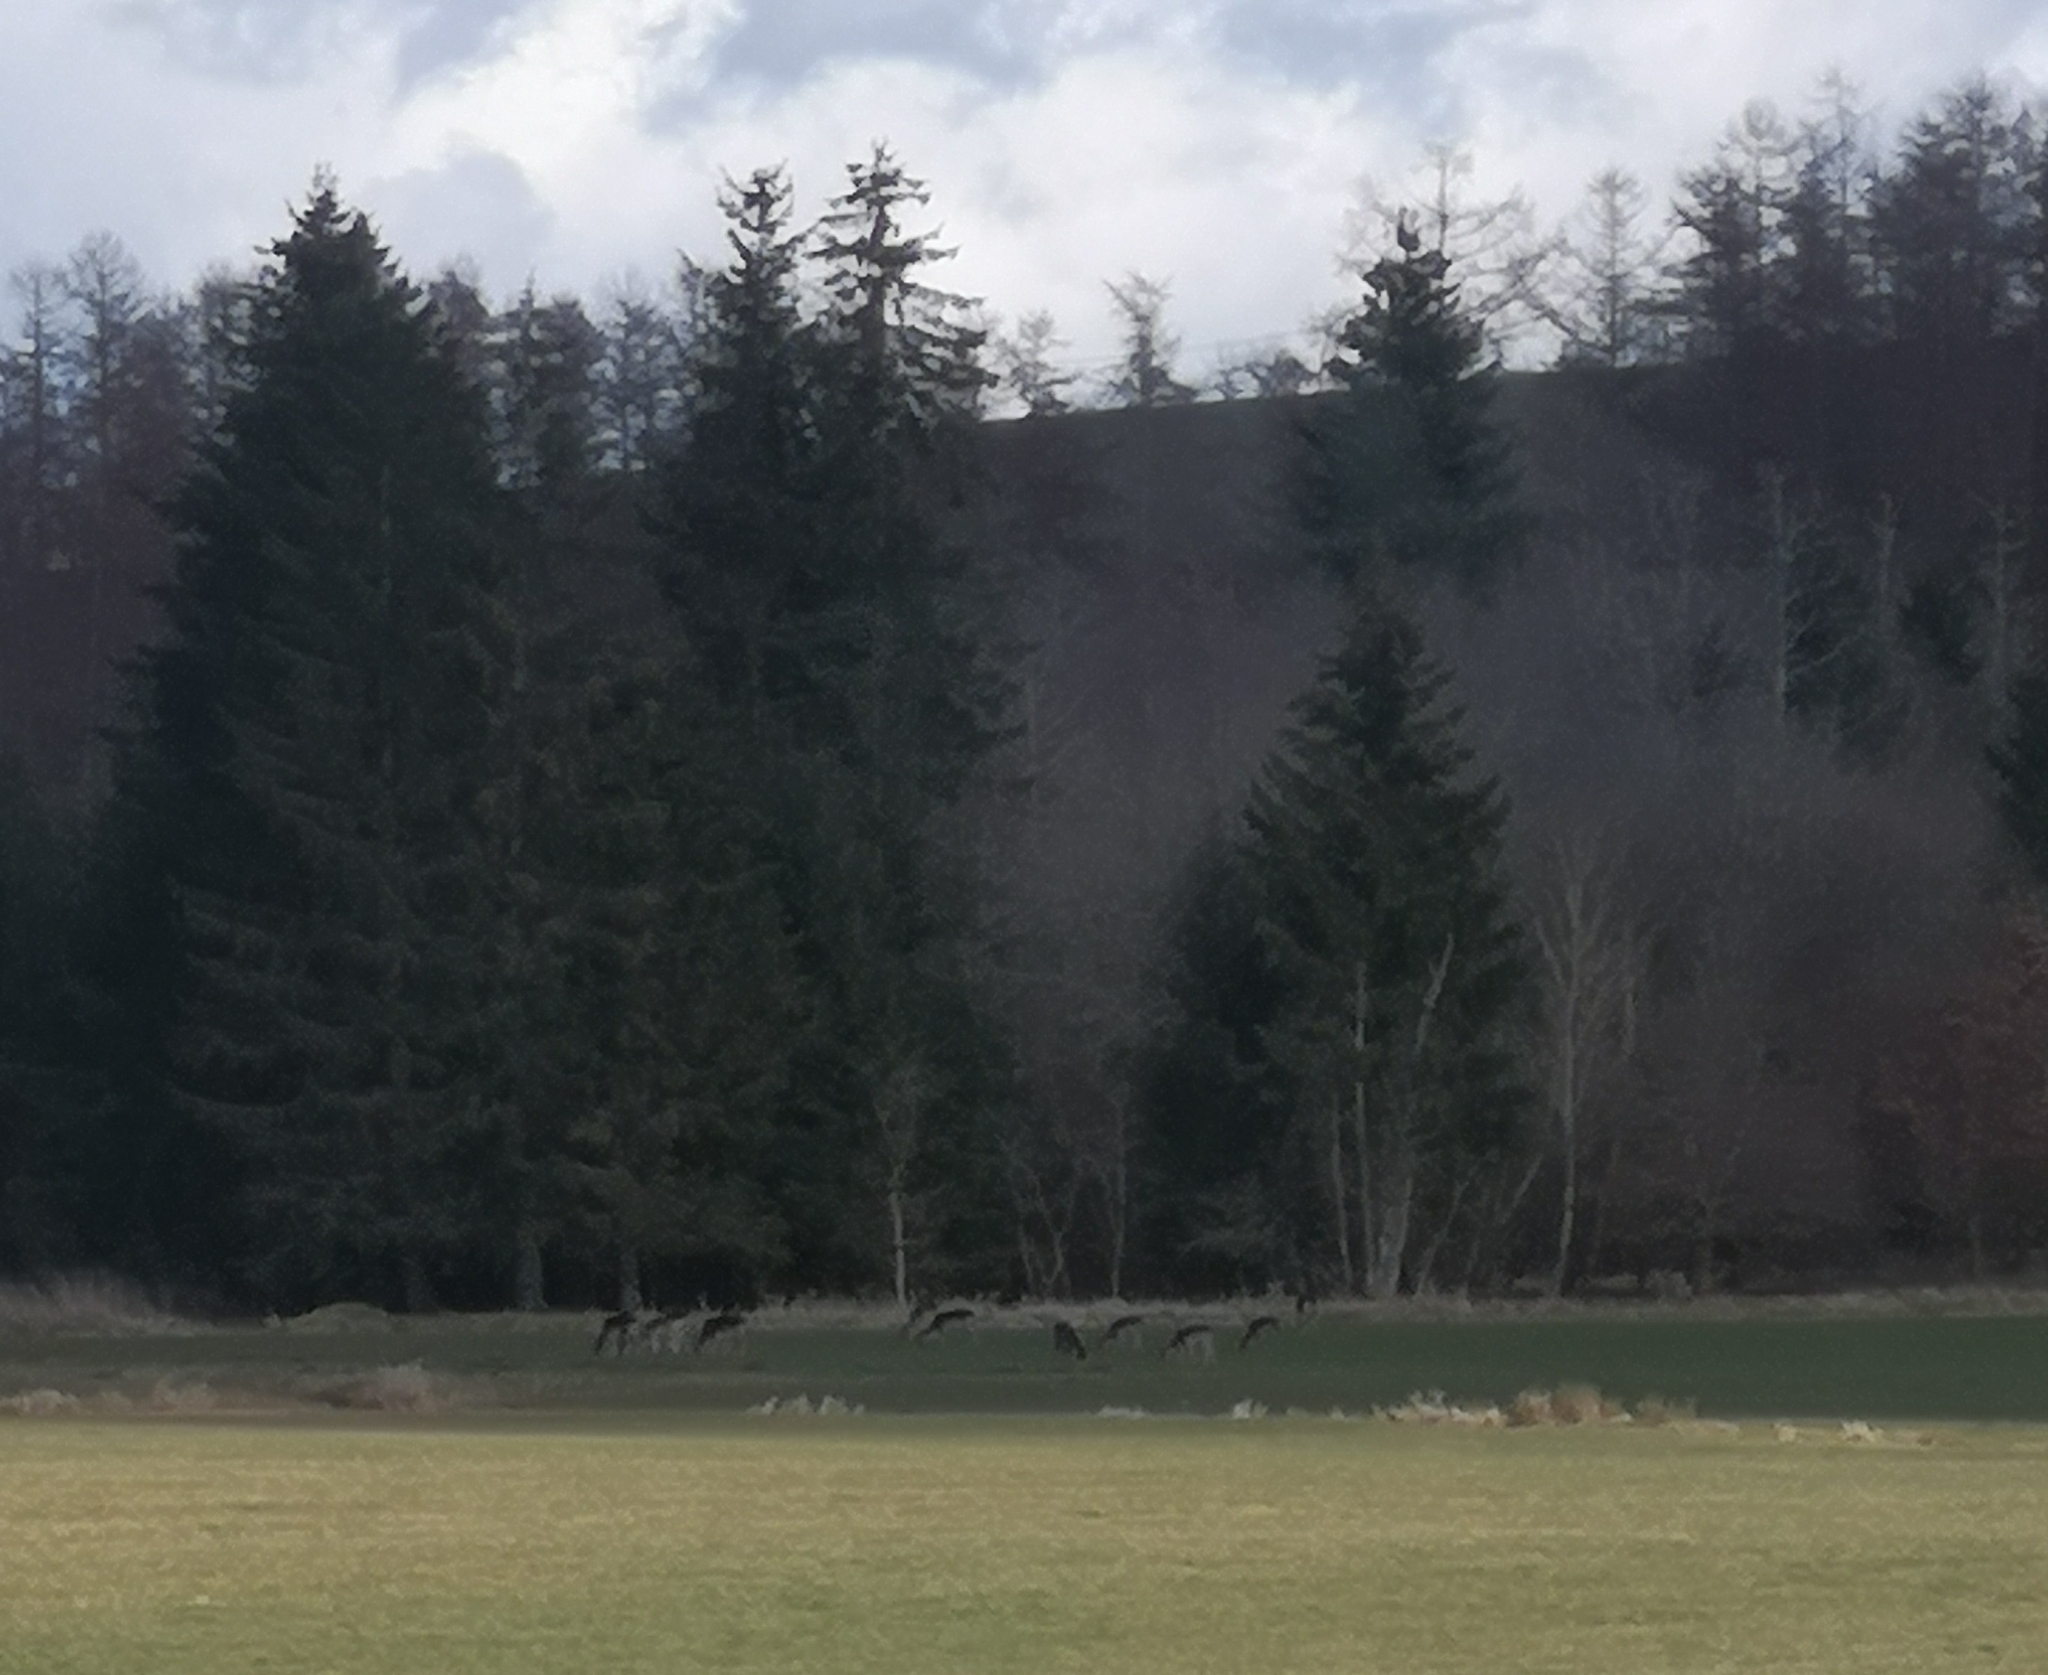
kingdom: Animalia
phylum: Chordata
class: Mammalia
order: Artiodactyla
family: Cervidae
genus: Dama
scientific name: Dama dama
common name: Fallow deer
